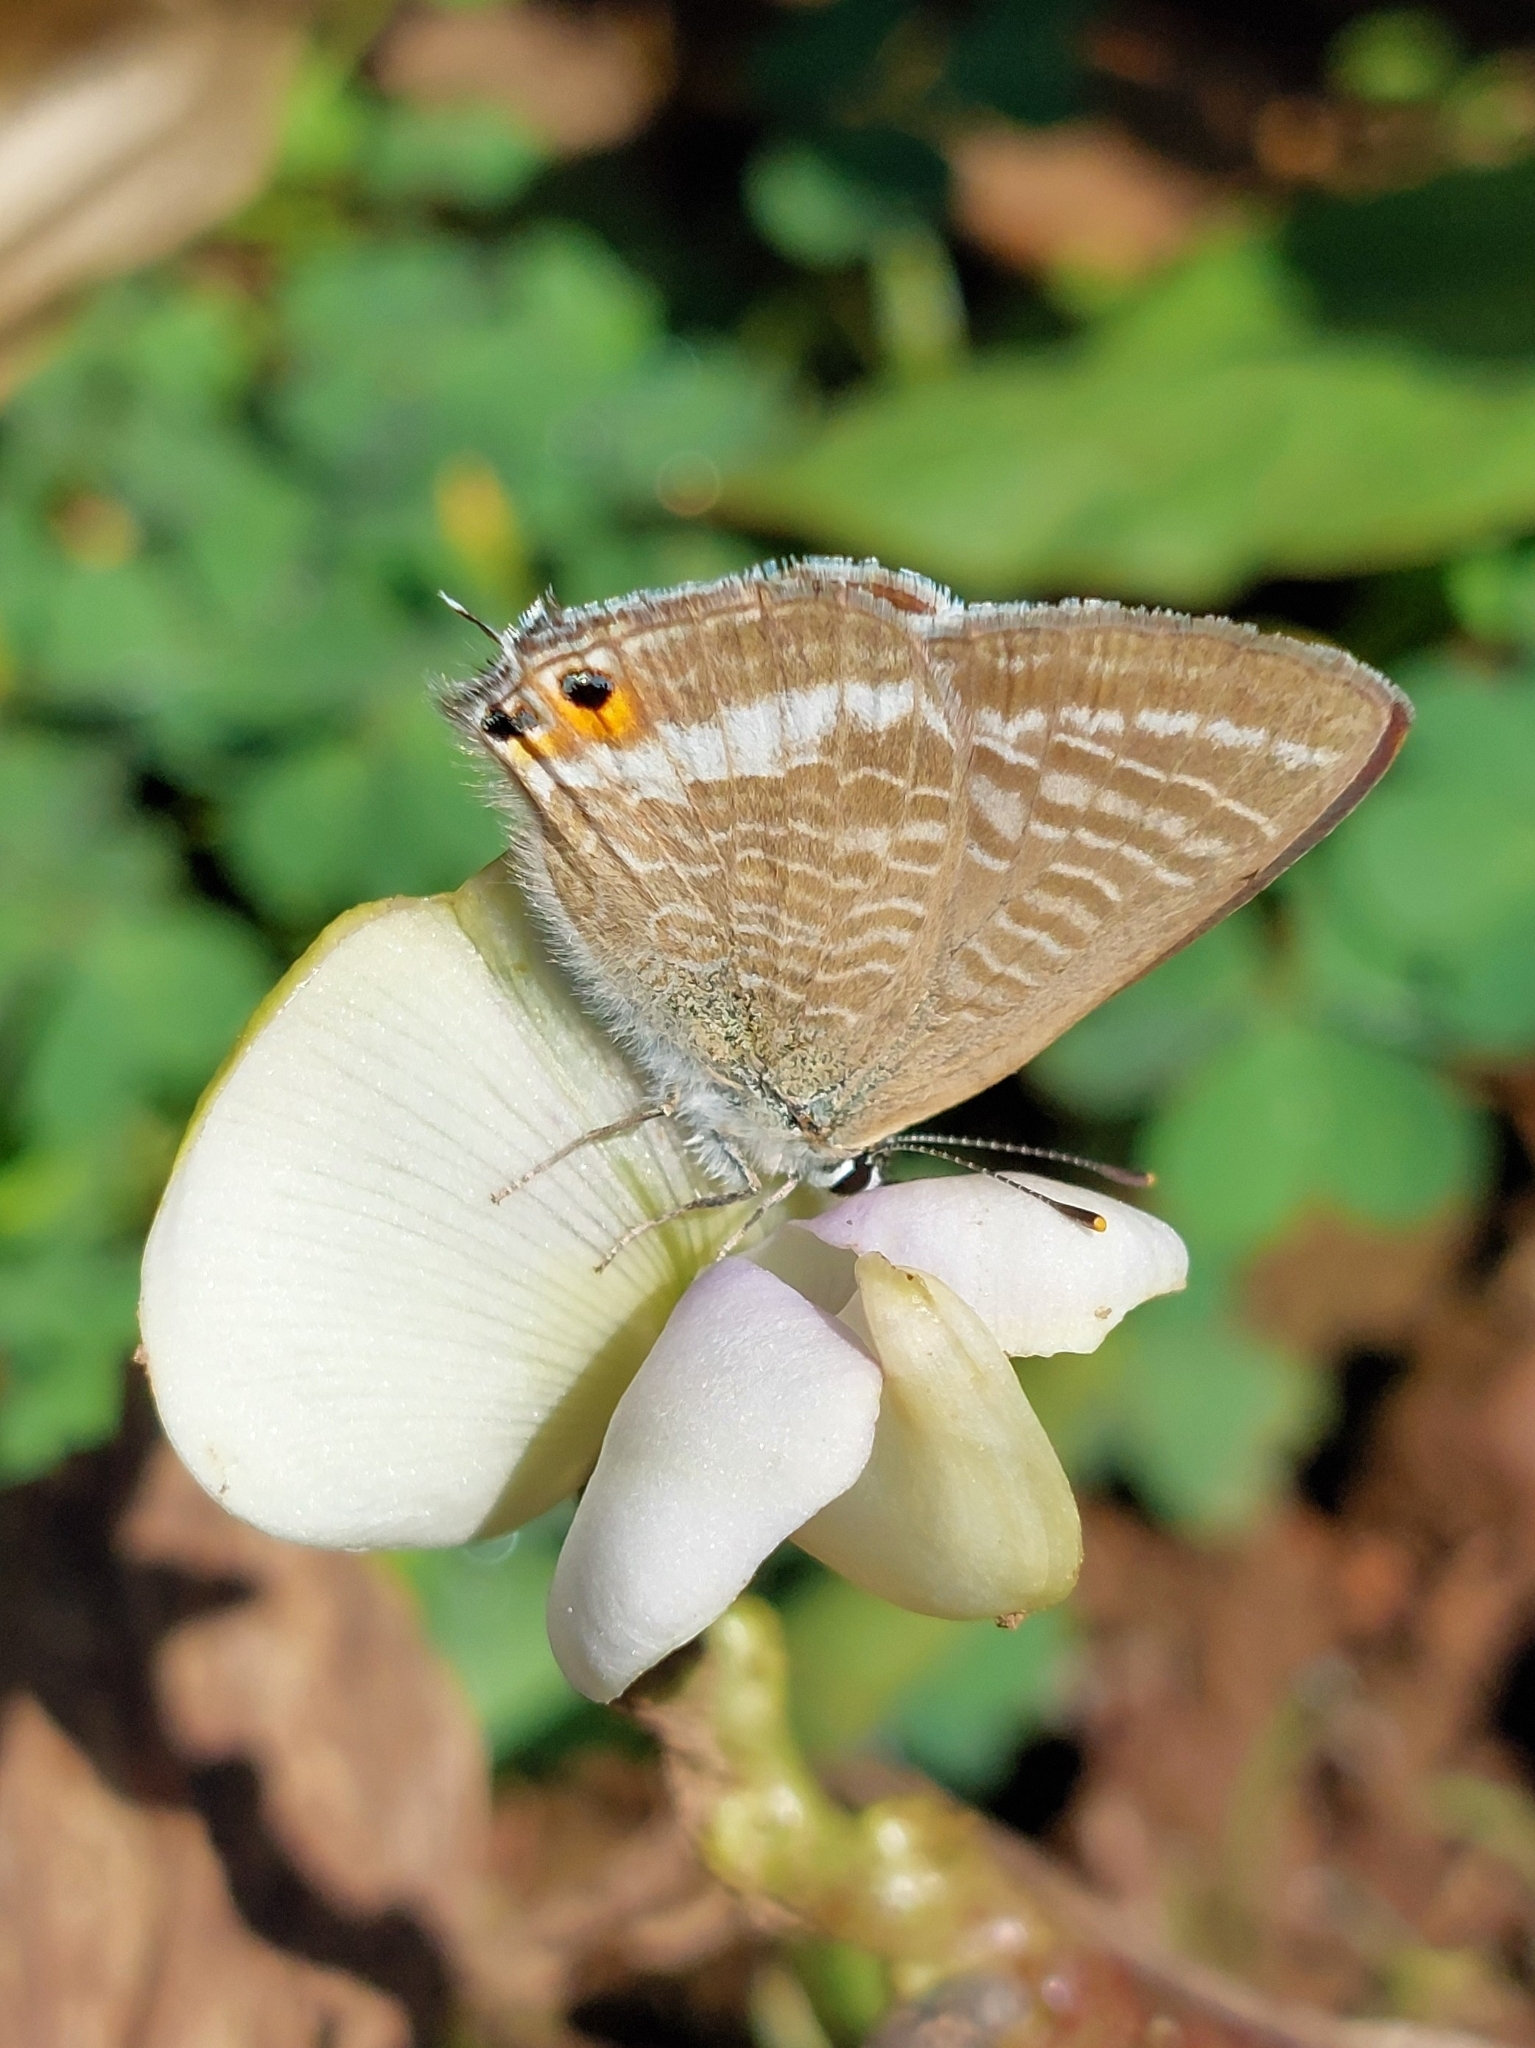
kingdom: Animalia
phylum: Arthropoda
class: Insecta
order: Lepidoptera
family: Lycaenidae
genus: Lampides
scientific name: Lampides boeticus
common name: Long-tailed blue
